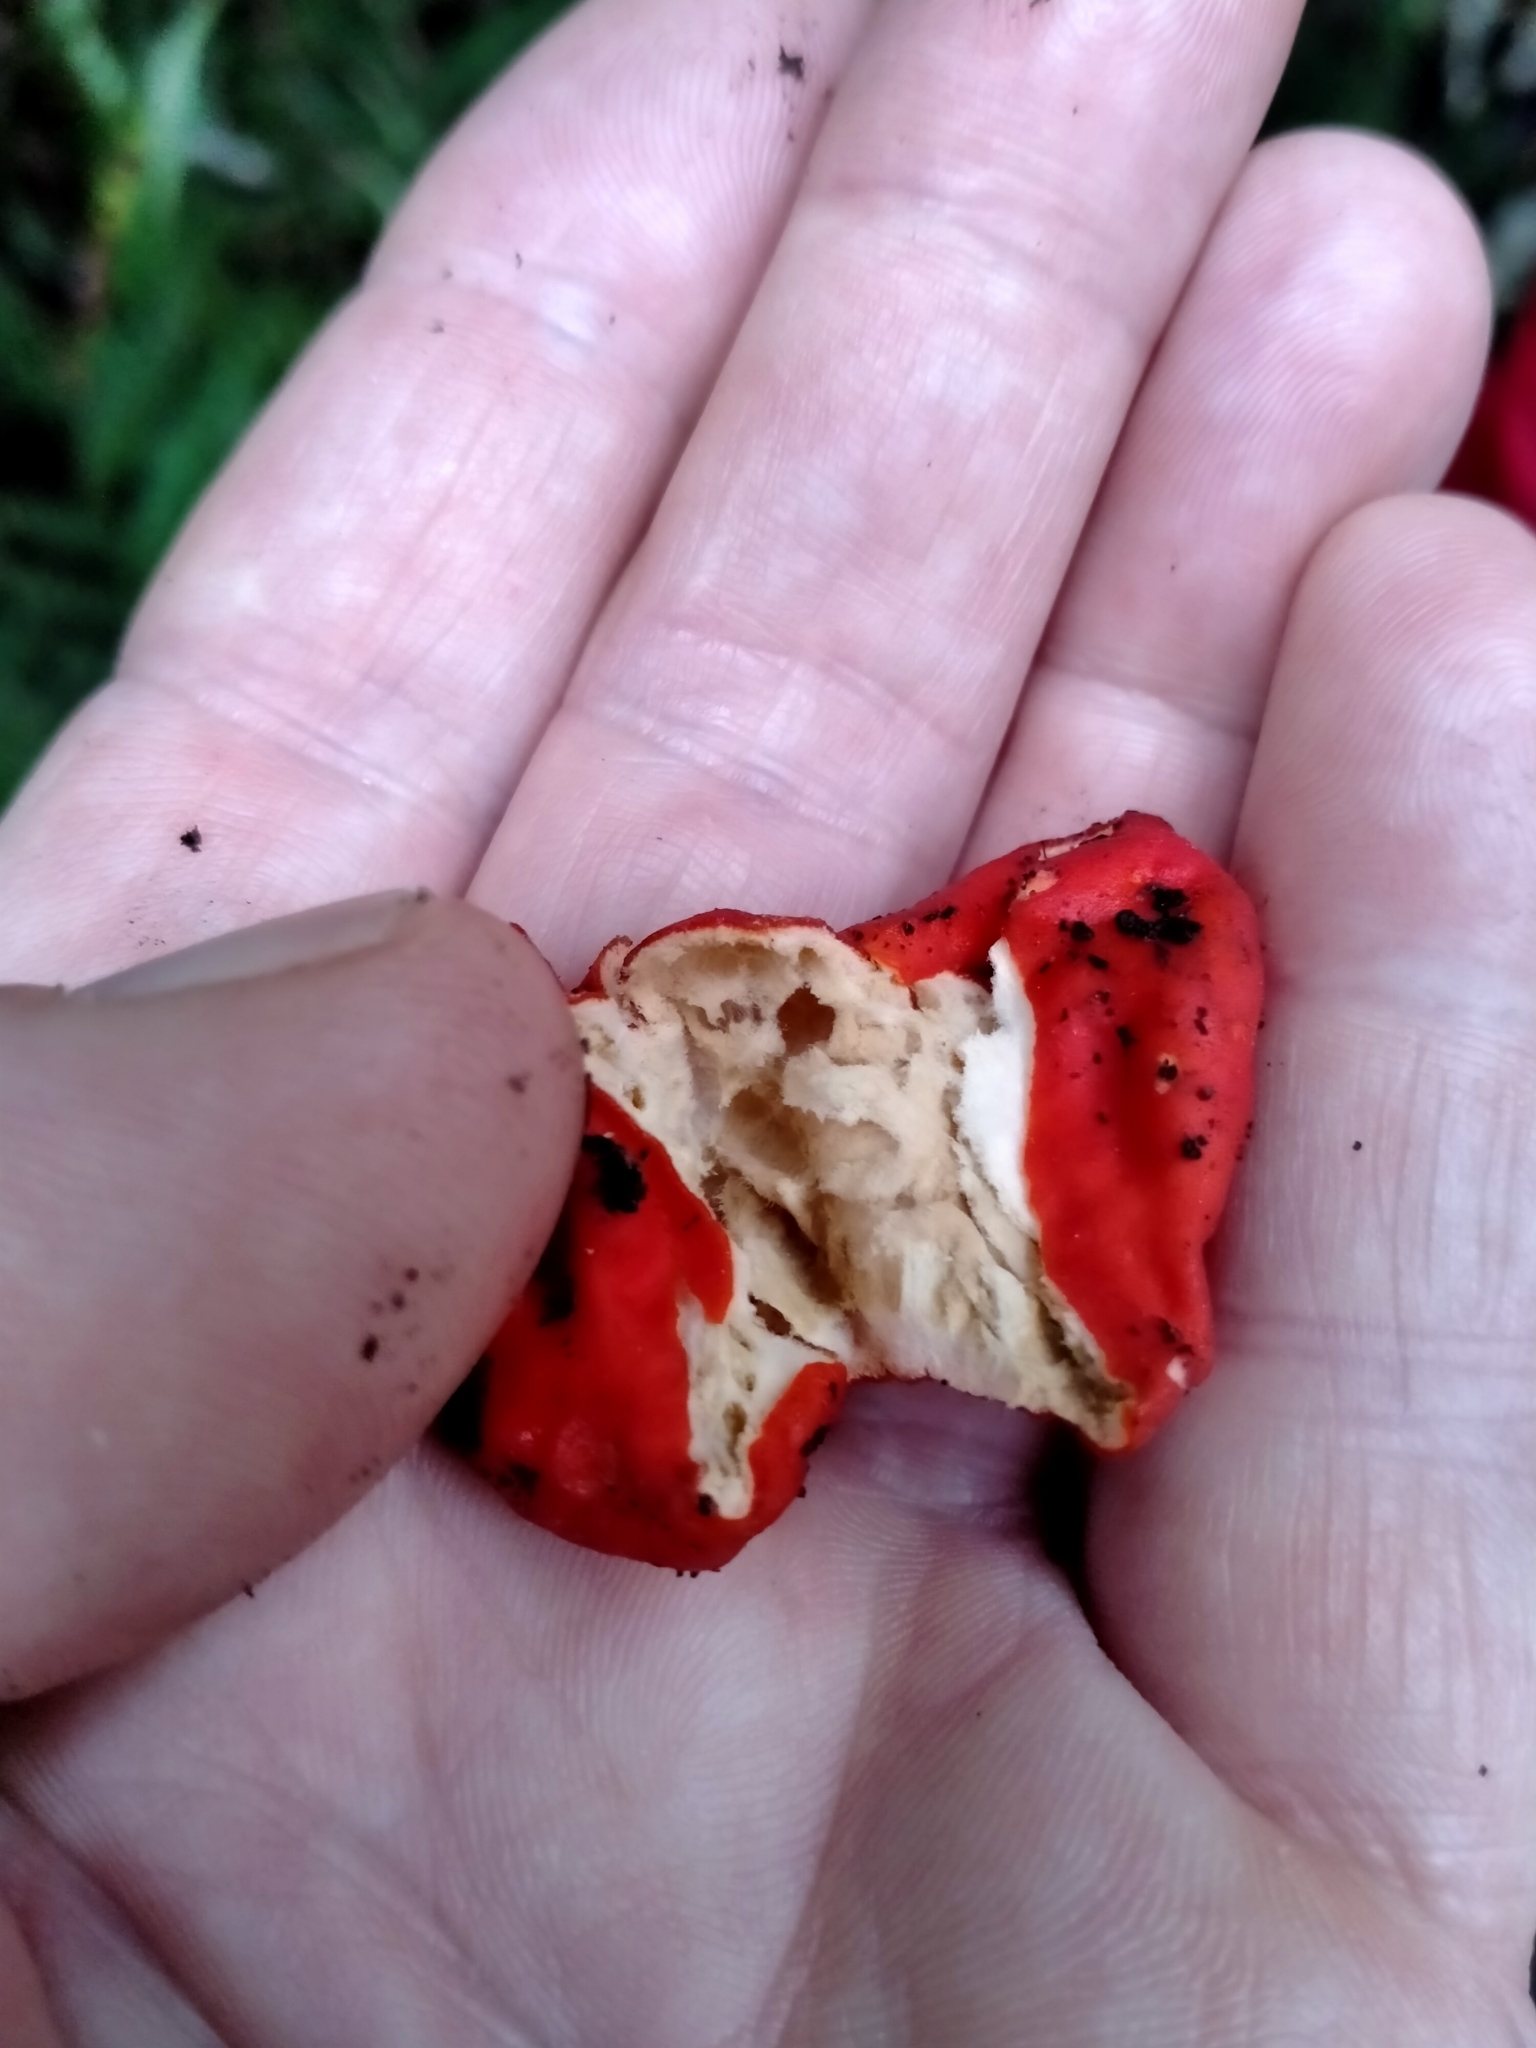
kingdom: Fungi
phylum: Ascomycota
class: Pezizomycetes
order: Pezizales
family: Pyronemataceae
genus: Paurocotylis
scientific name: Paurocotylis pila
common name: Scarlet berry truffle
